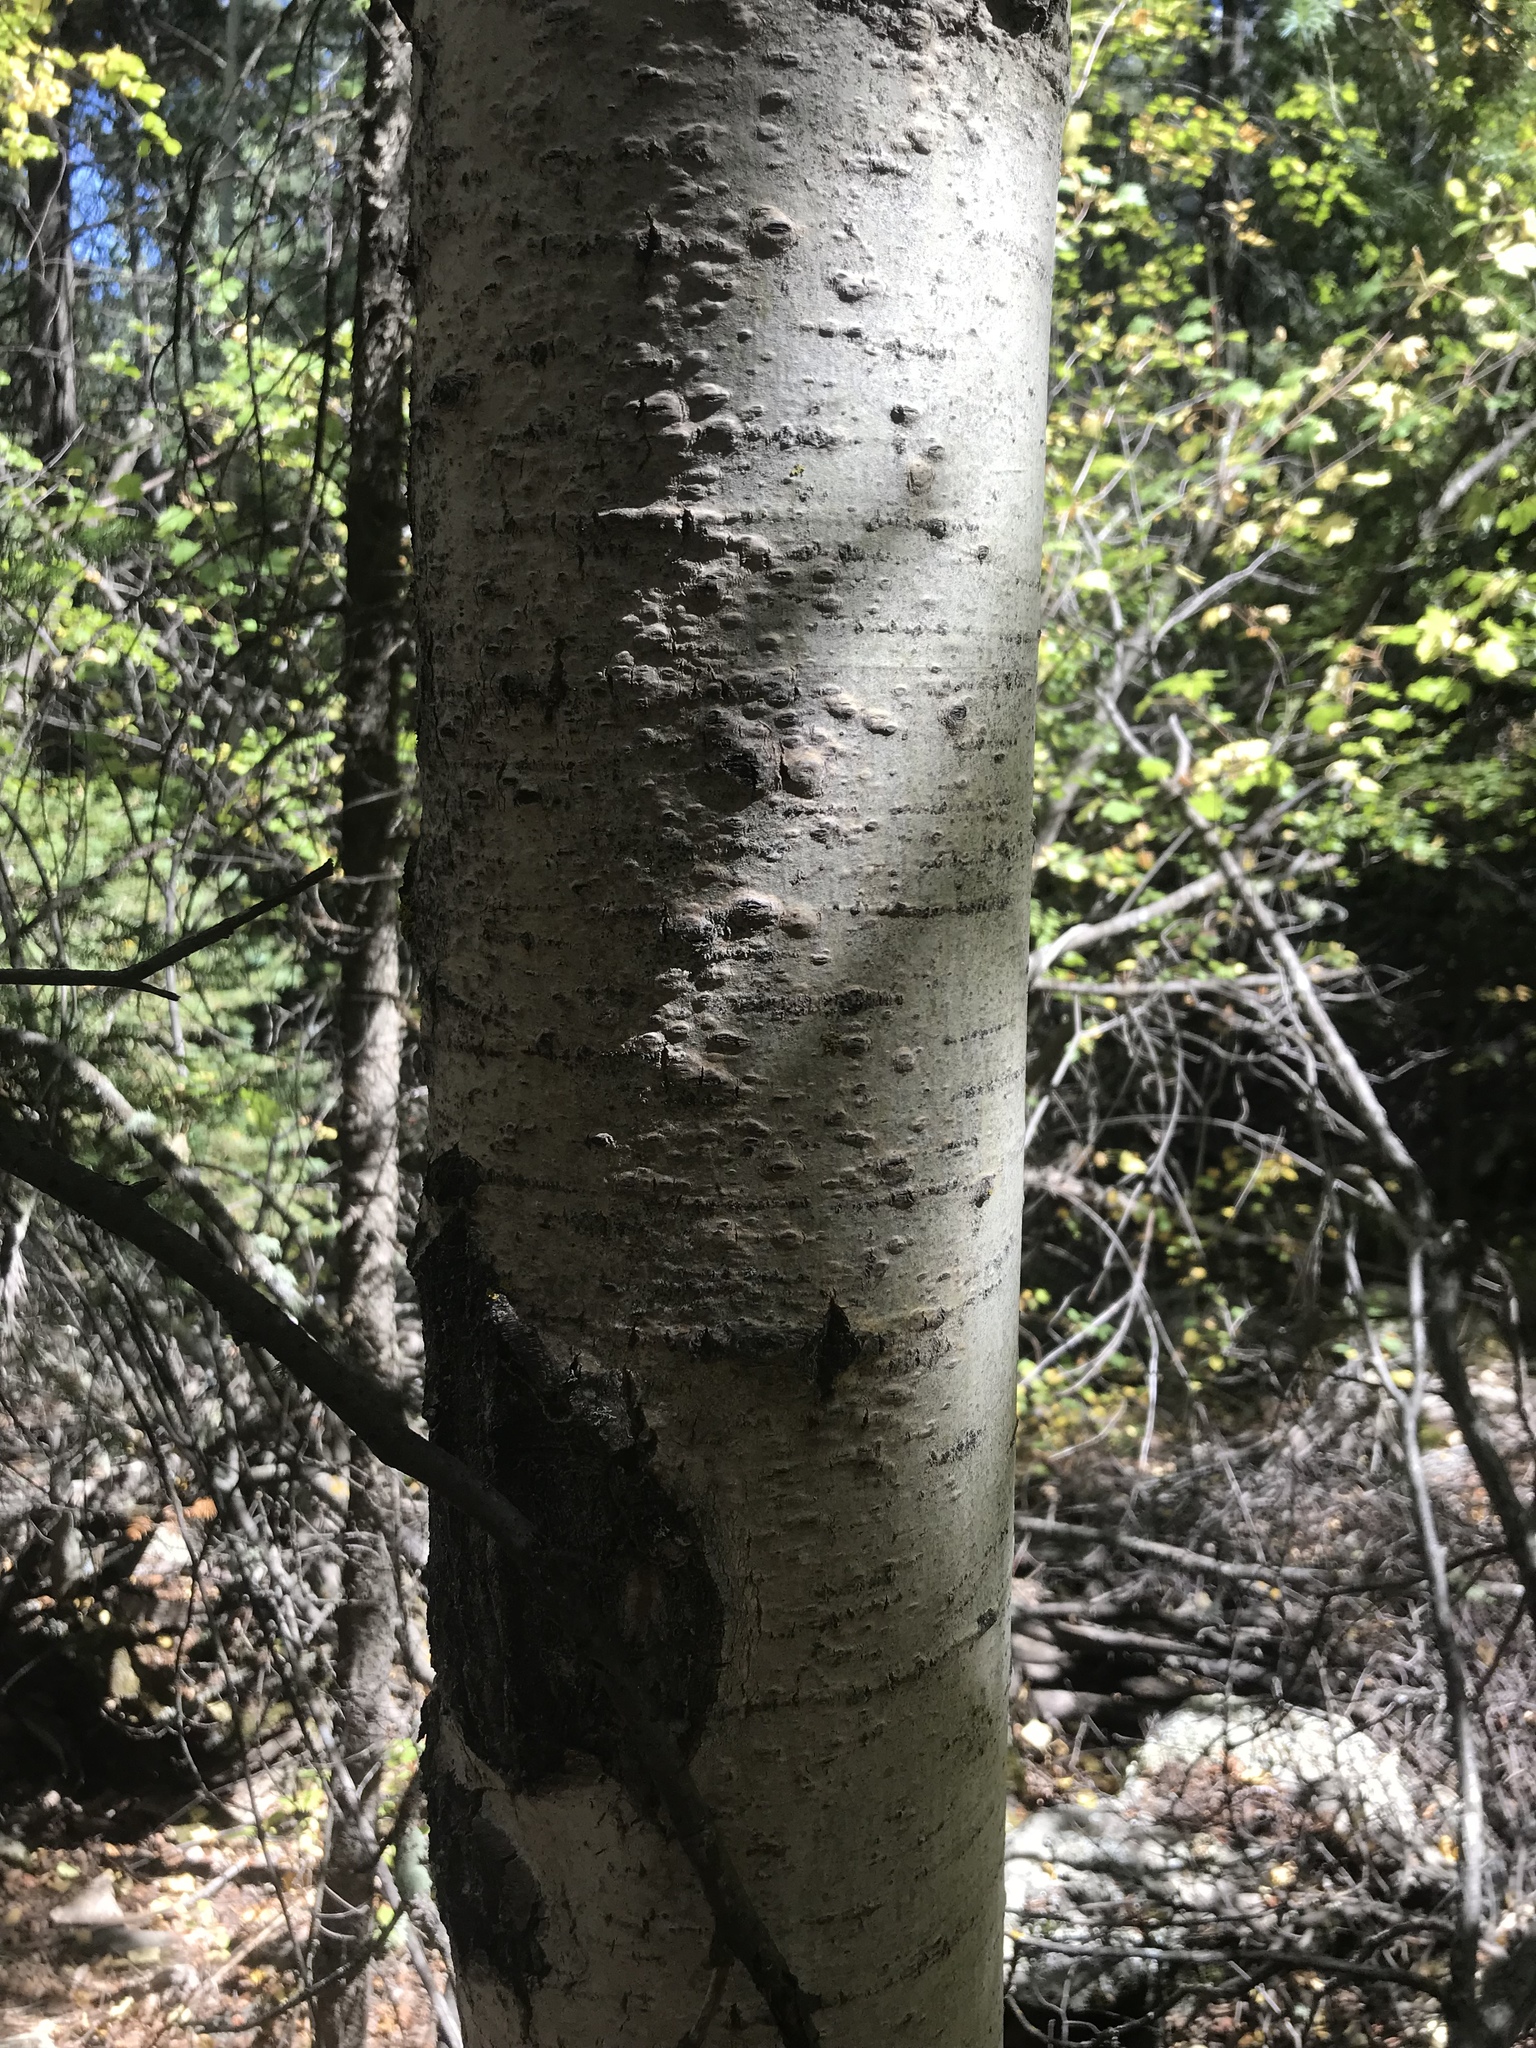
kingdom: Plantae
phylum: Tracheophyta
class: Magnoliopsida
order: Malpighiales
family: Salicaceae
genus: Populus
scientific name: Populus tremuloides
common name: Quaking aspen
